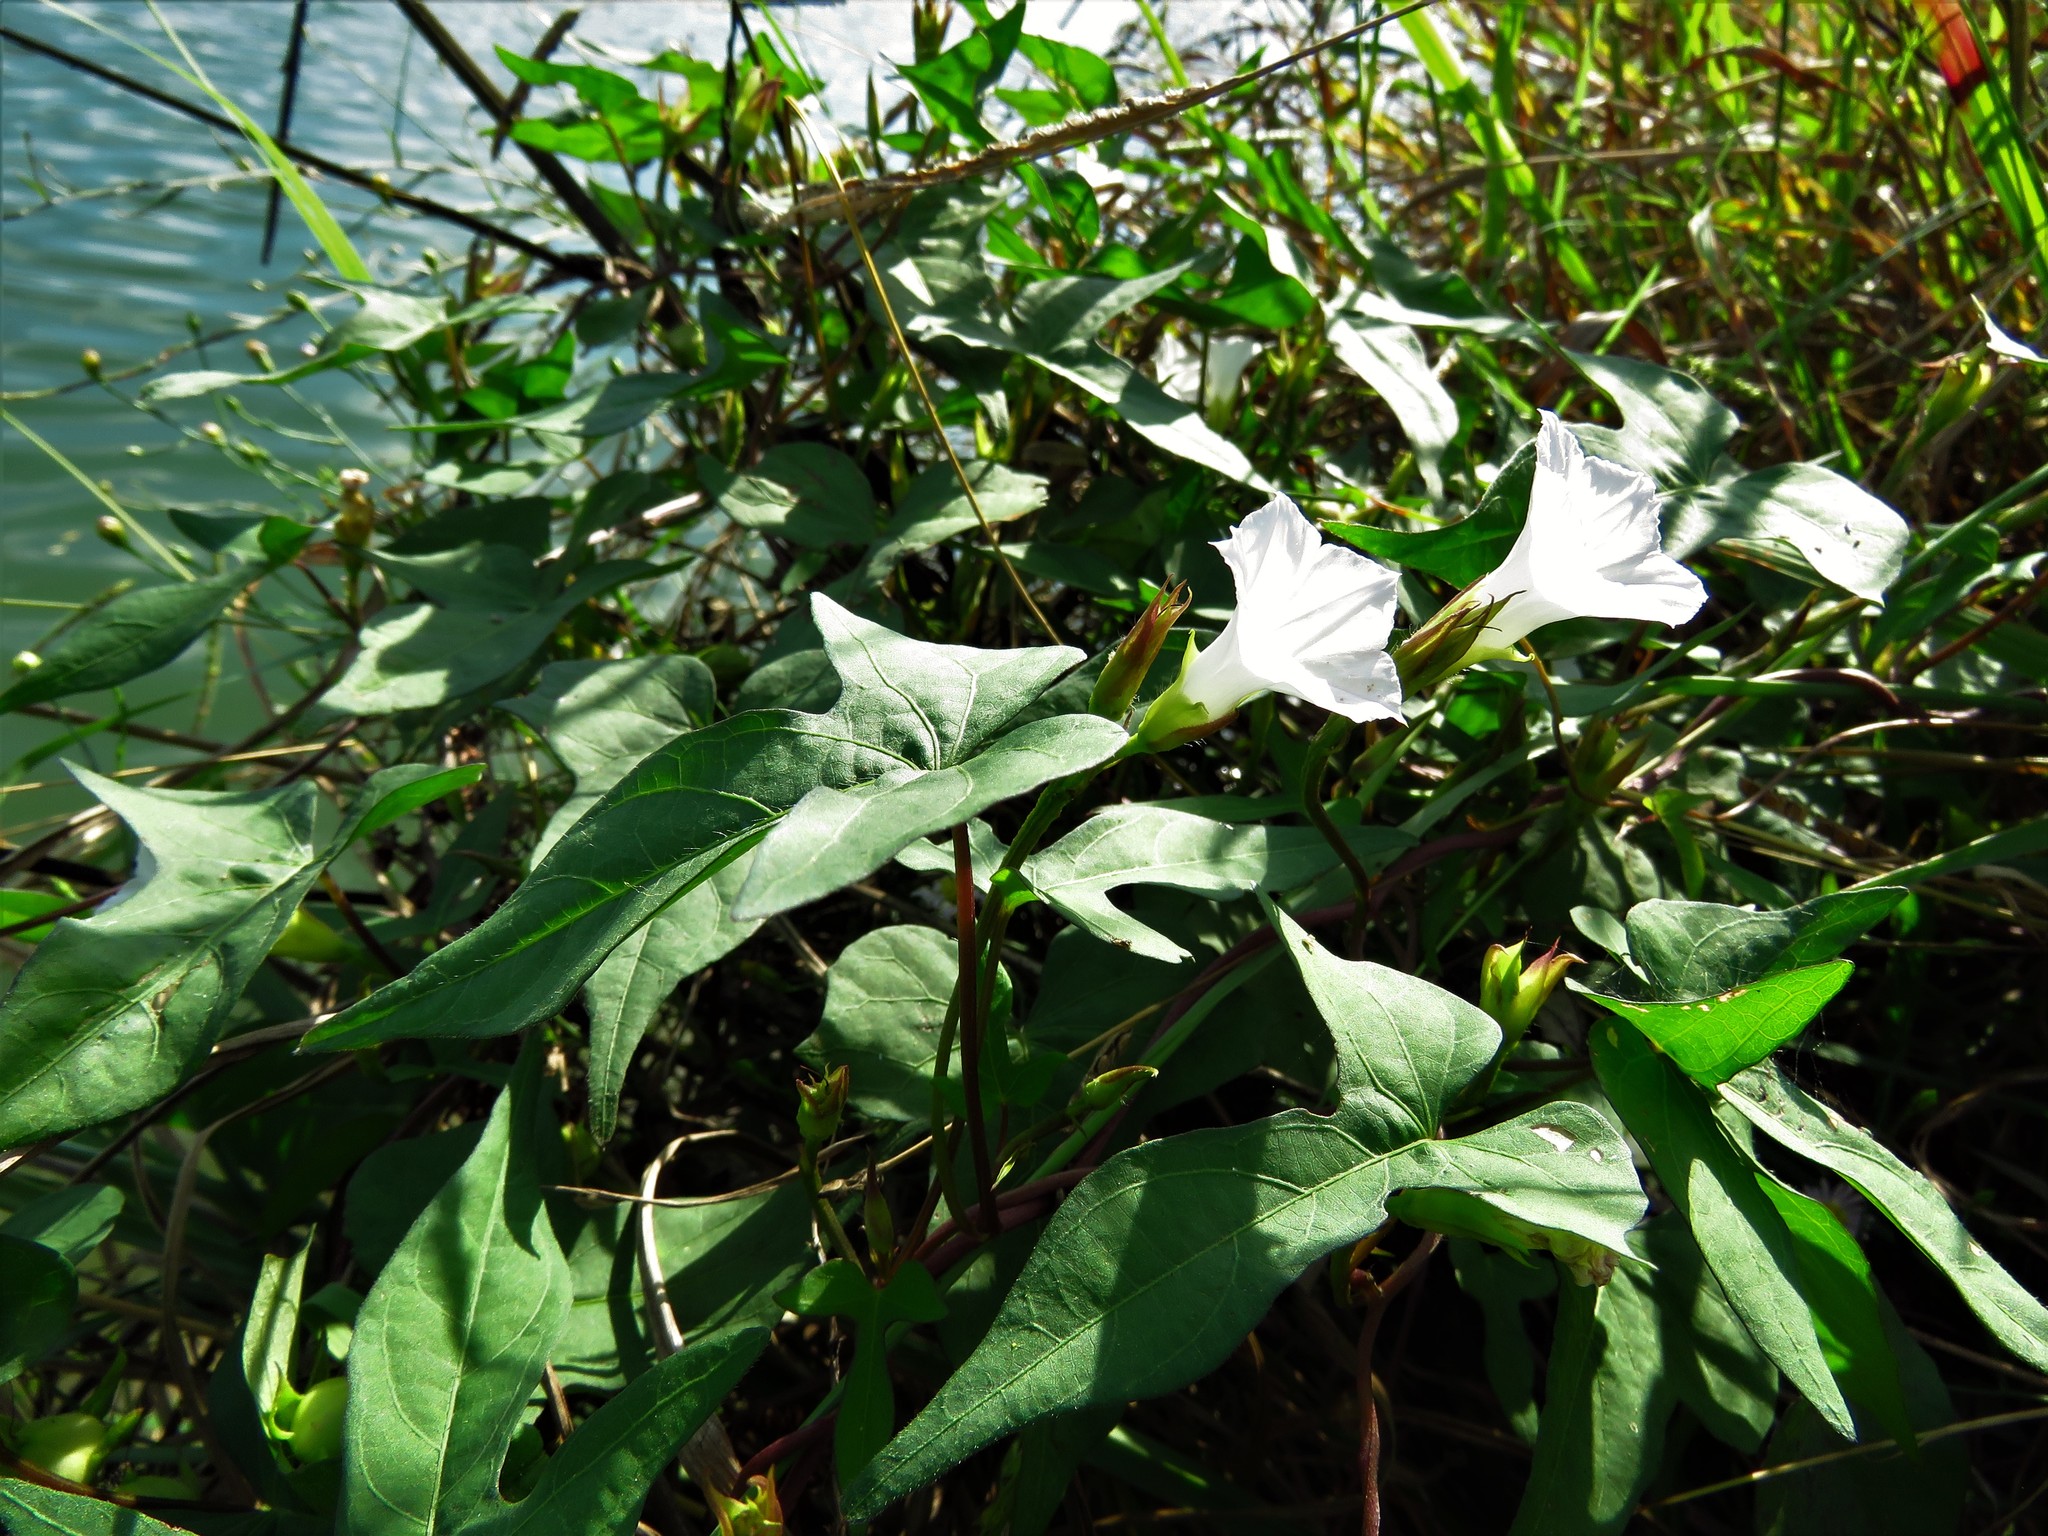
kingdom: Plantae
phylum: Tracheophyta
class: Magnoliopsida
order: Solanales
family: Convolvulaceae
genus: Ipomoea
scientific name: Ipomoea lacunosa
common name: White morning-glory
